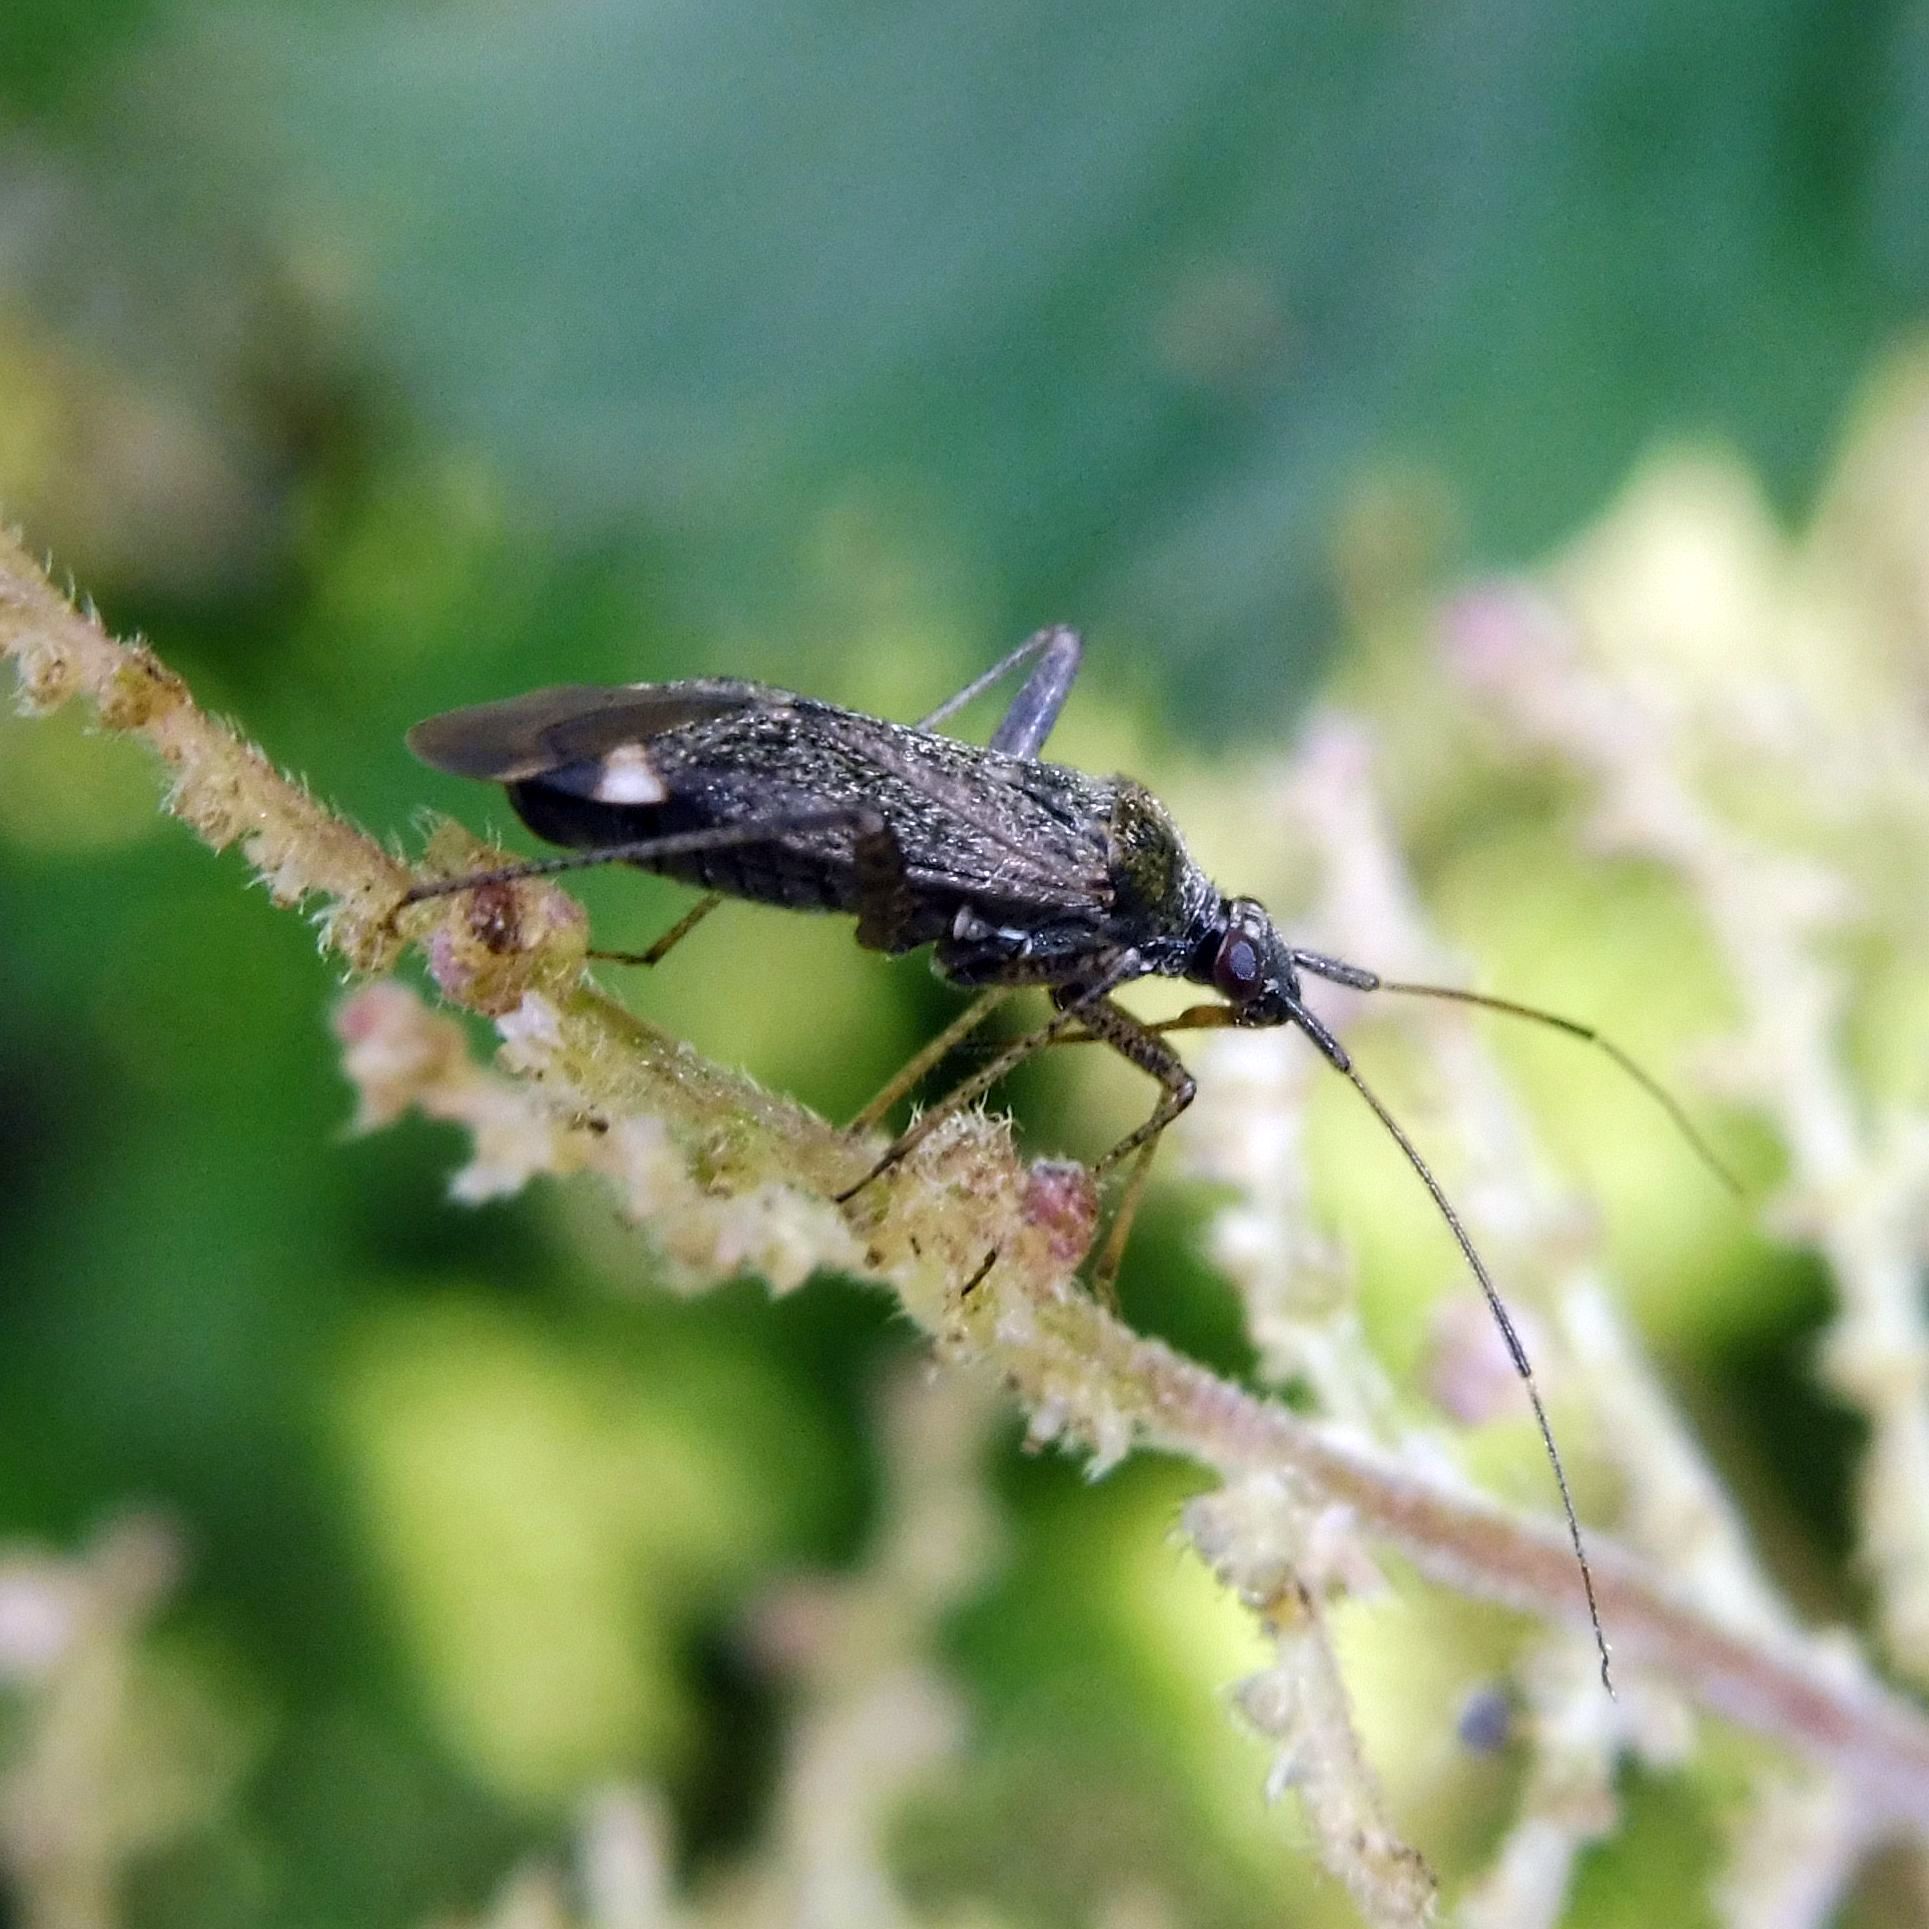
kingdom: Animalia
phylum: Arthropoda
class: Insecta
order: Hemiptera
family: Miridae
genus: Closterotomus
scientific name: Closterotomus fulvomaculatus
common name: Spotted plant bug
